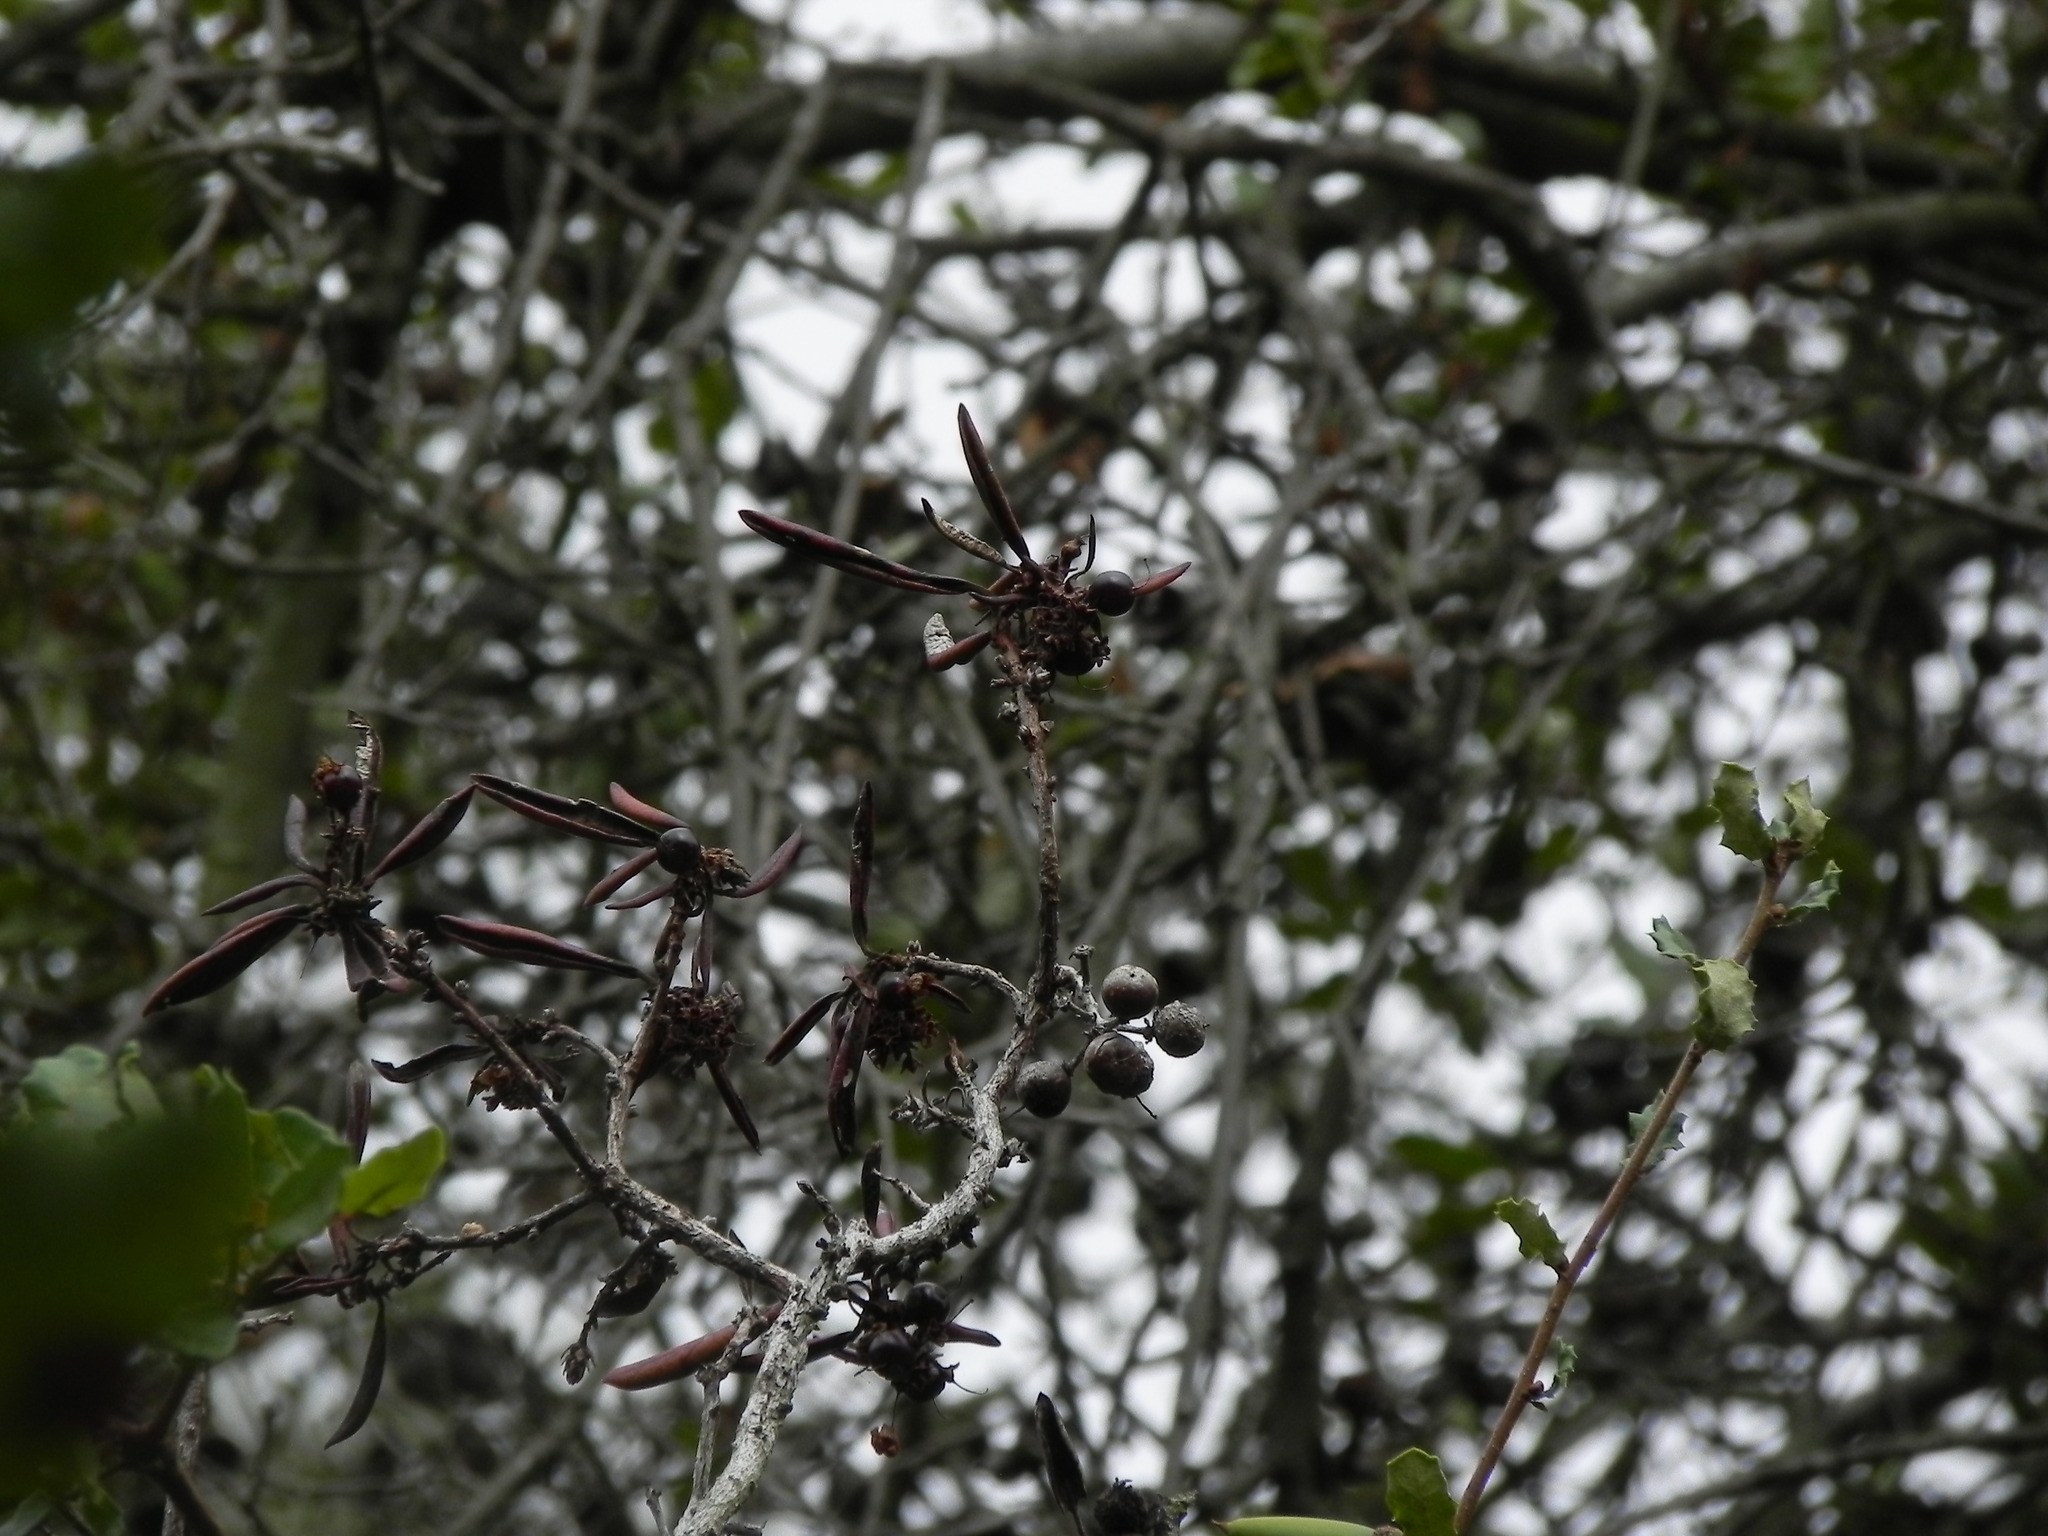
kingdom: Plantae
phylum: Tracheophyta
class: Magnoliopsida
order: Ericales
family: Ericaceae
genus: Arctostaphylos
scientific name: Arctostaphylos bicolor
